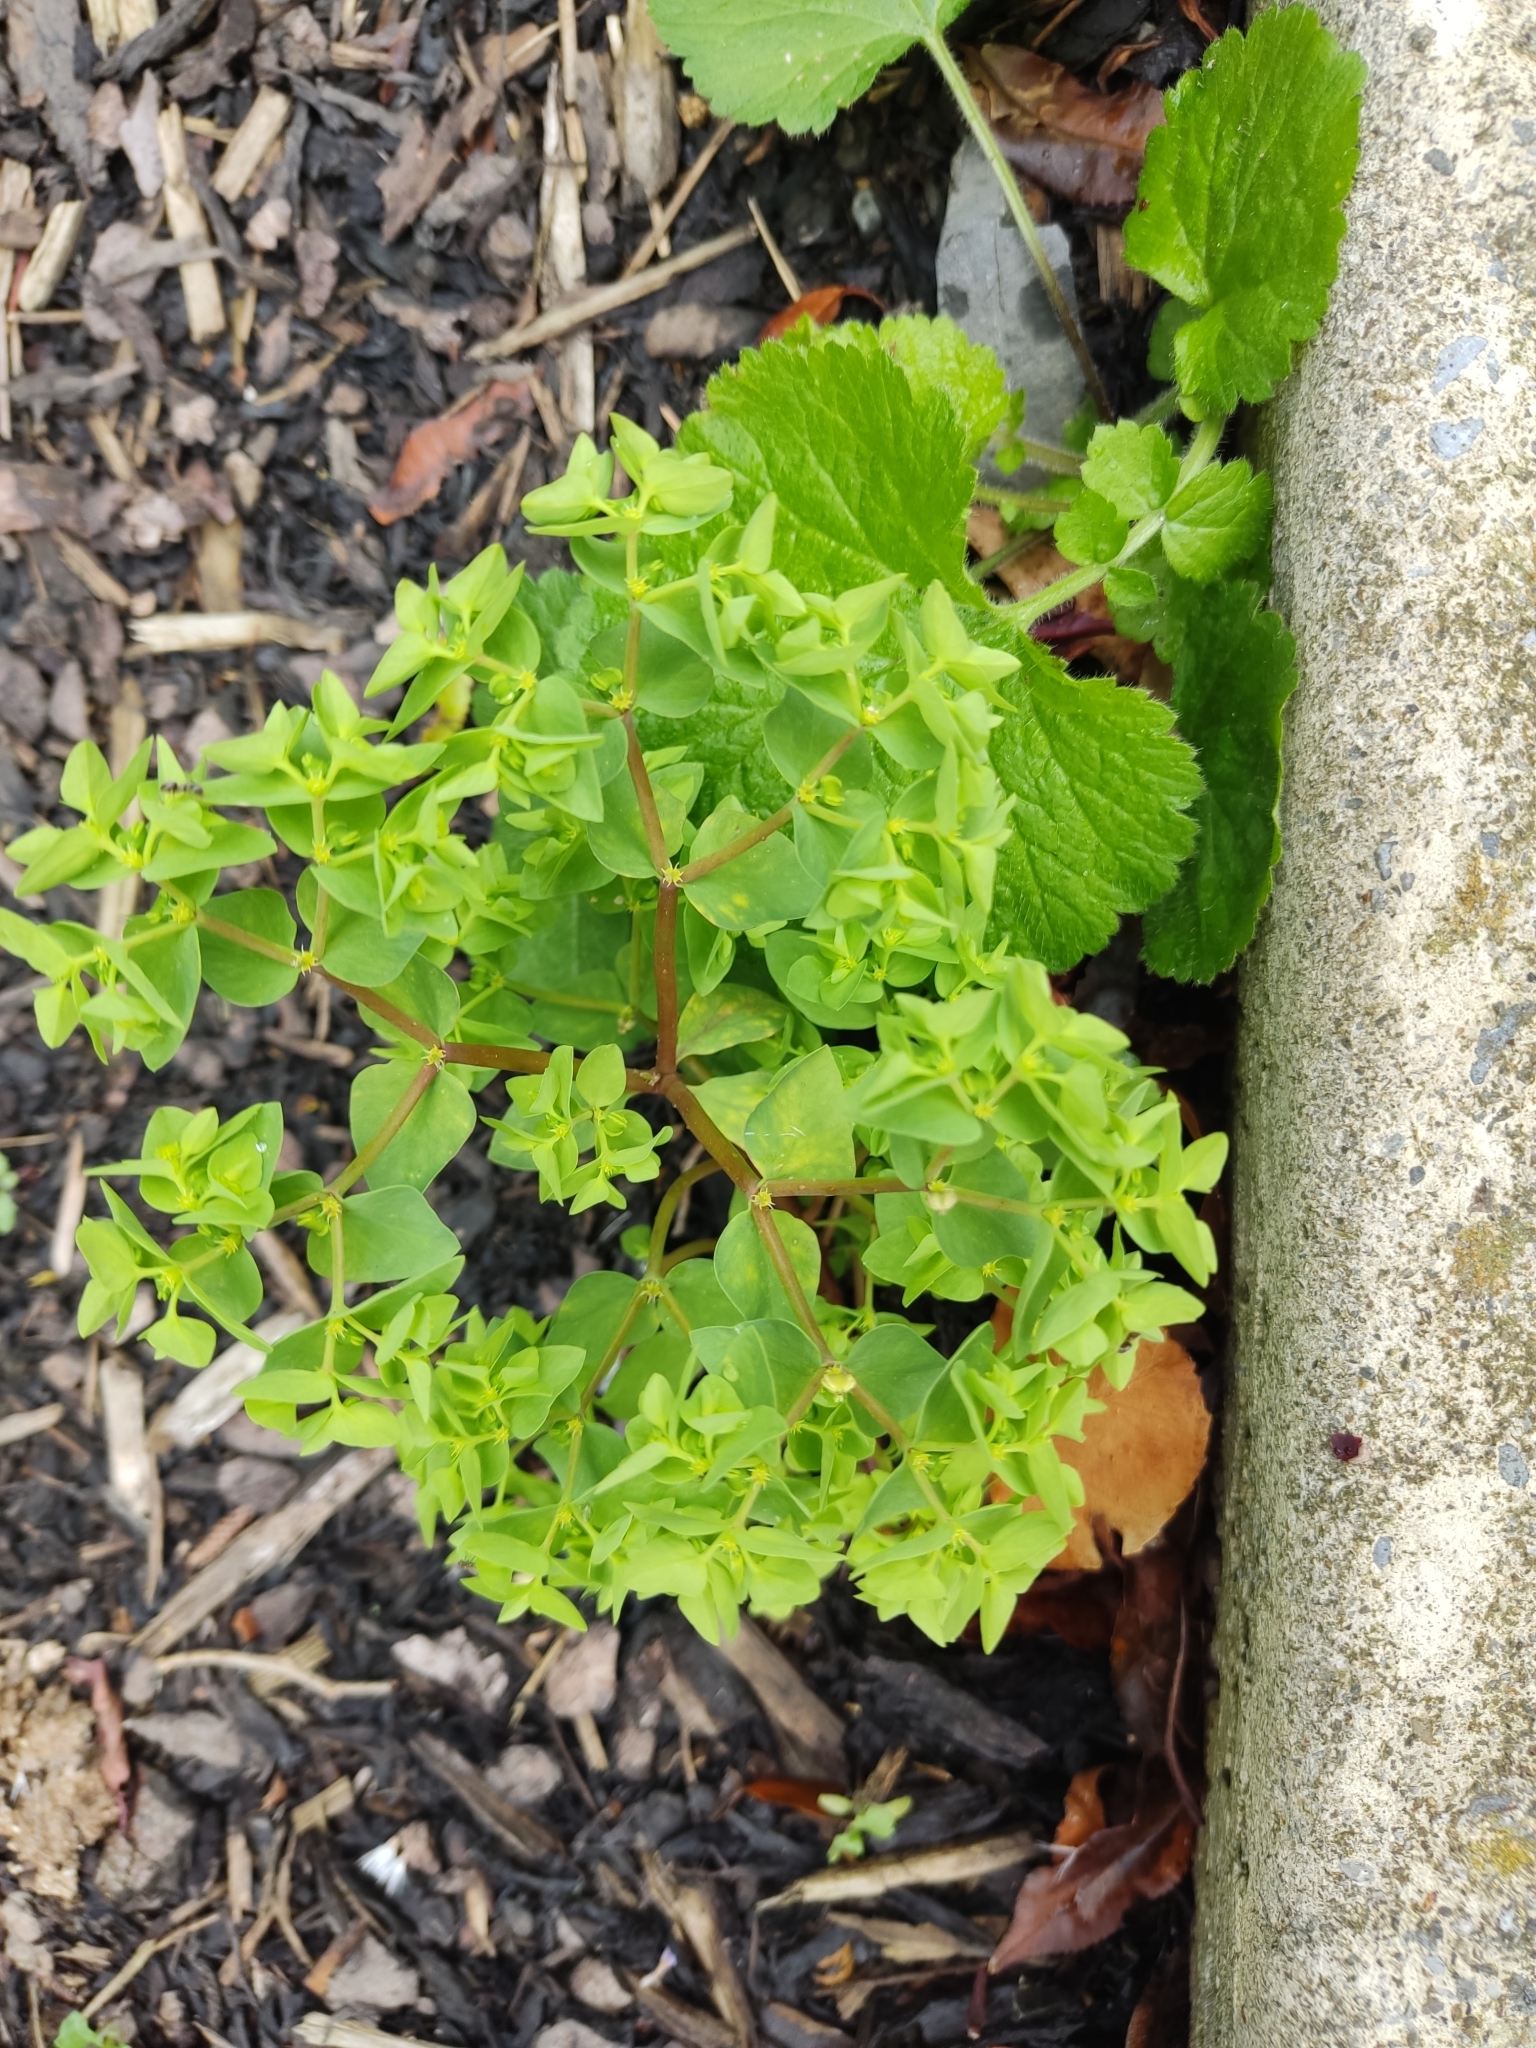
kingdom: Plantae
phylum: Tracheophyta
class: Magnoliopsida
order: Malpighiales
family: Euphorbiaceae
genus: Euphorbia
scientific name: Euphorbia peplus
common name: Petty spurge
